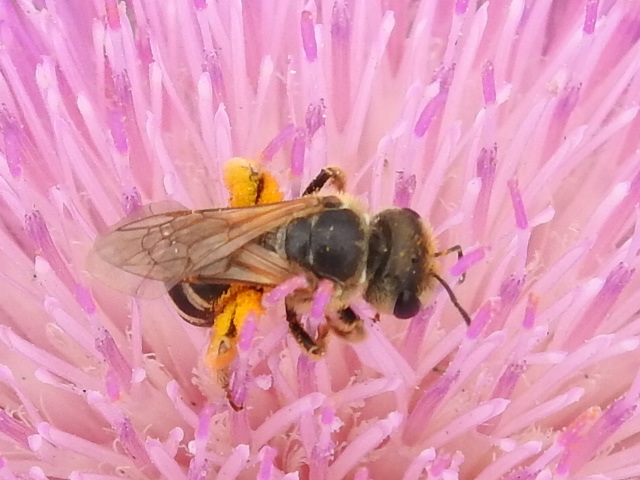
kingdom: Animalia
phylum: Arthropoda
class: Insecta
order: Hymenoptera
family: Halictidae
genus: Halictus
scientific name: Halictus ligatus
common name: Ligated furrow bee
